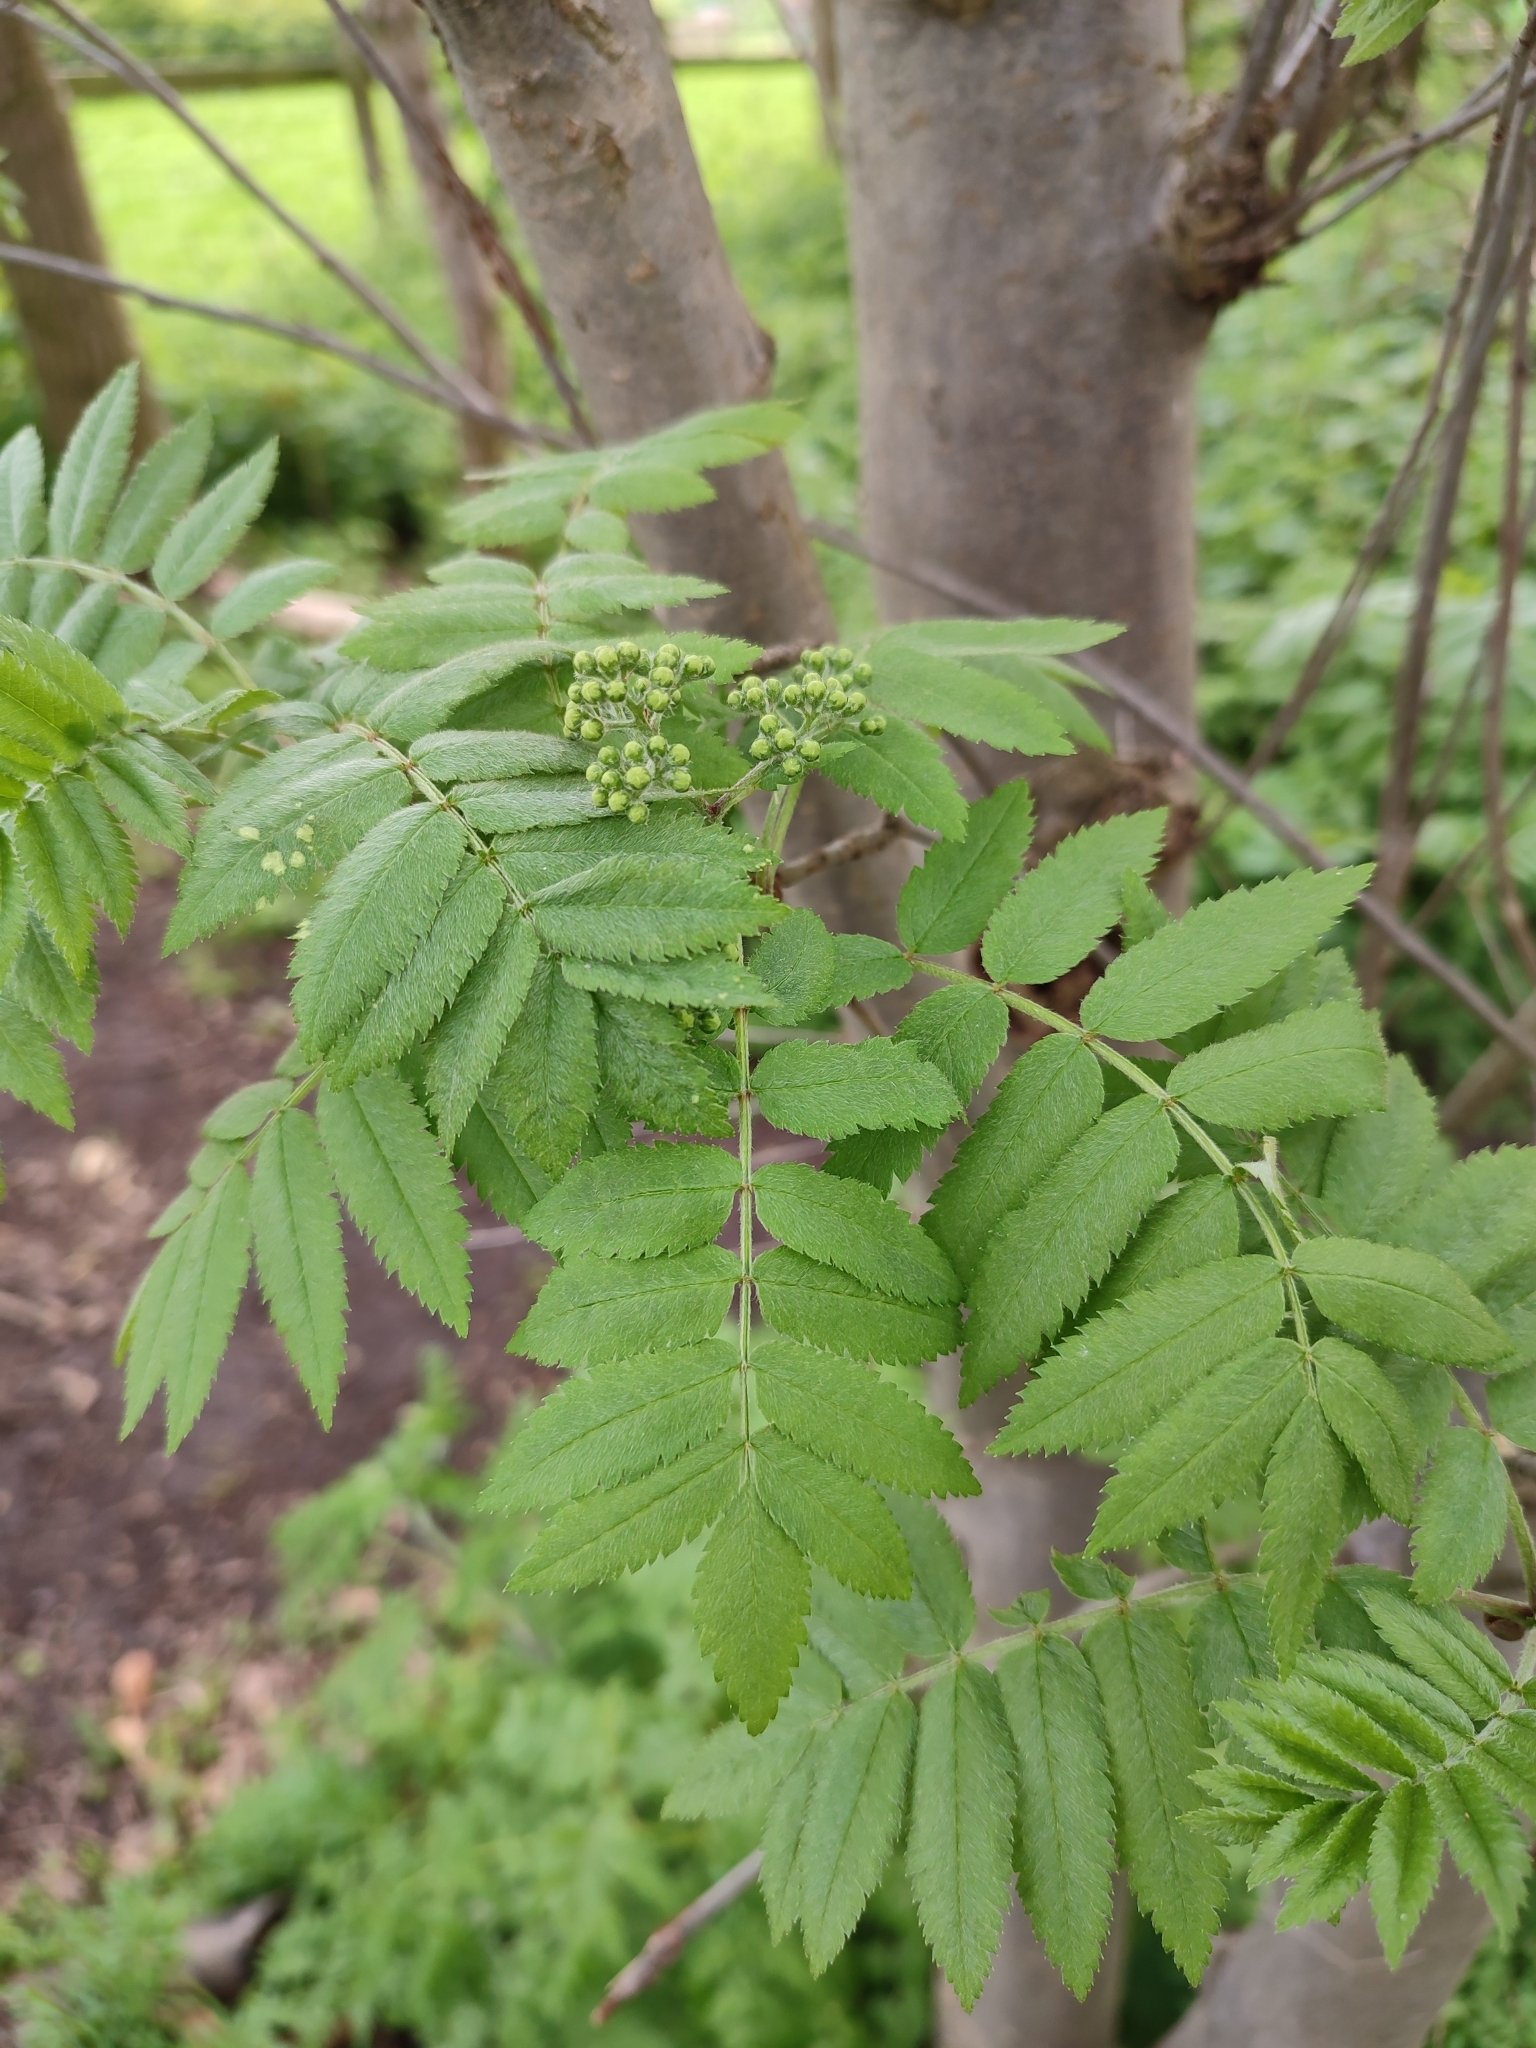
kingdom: Plantae
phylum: Tracheophyta
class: Magnoliopsida
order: Rosales
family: Rosaceae
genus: Sorbus
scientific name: Sorbus aucuparia
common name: Rowan
